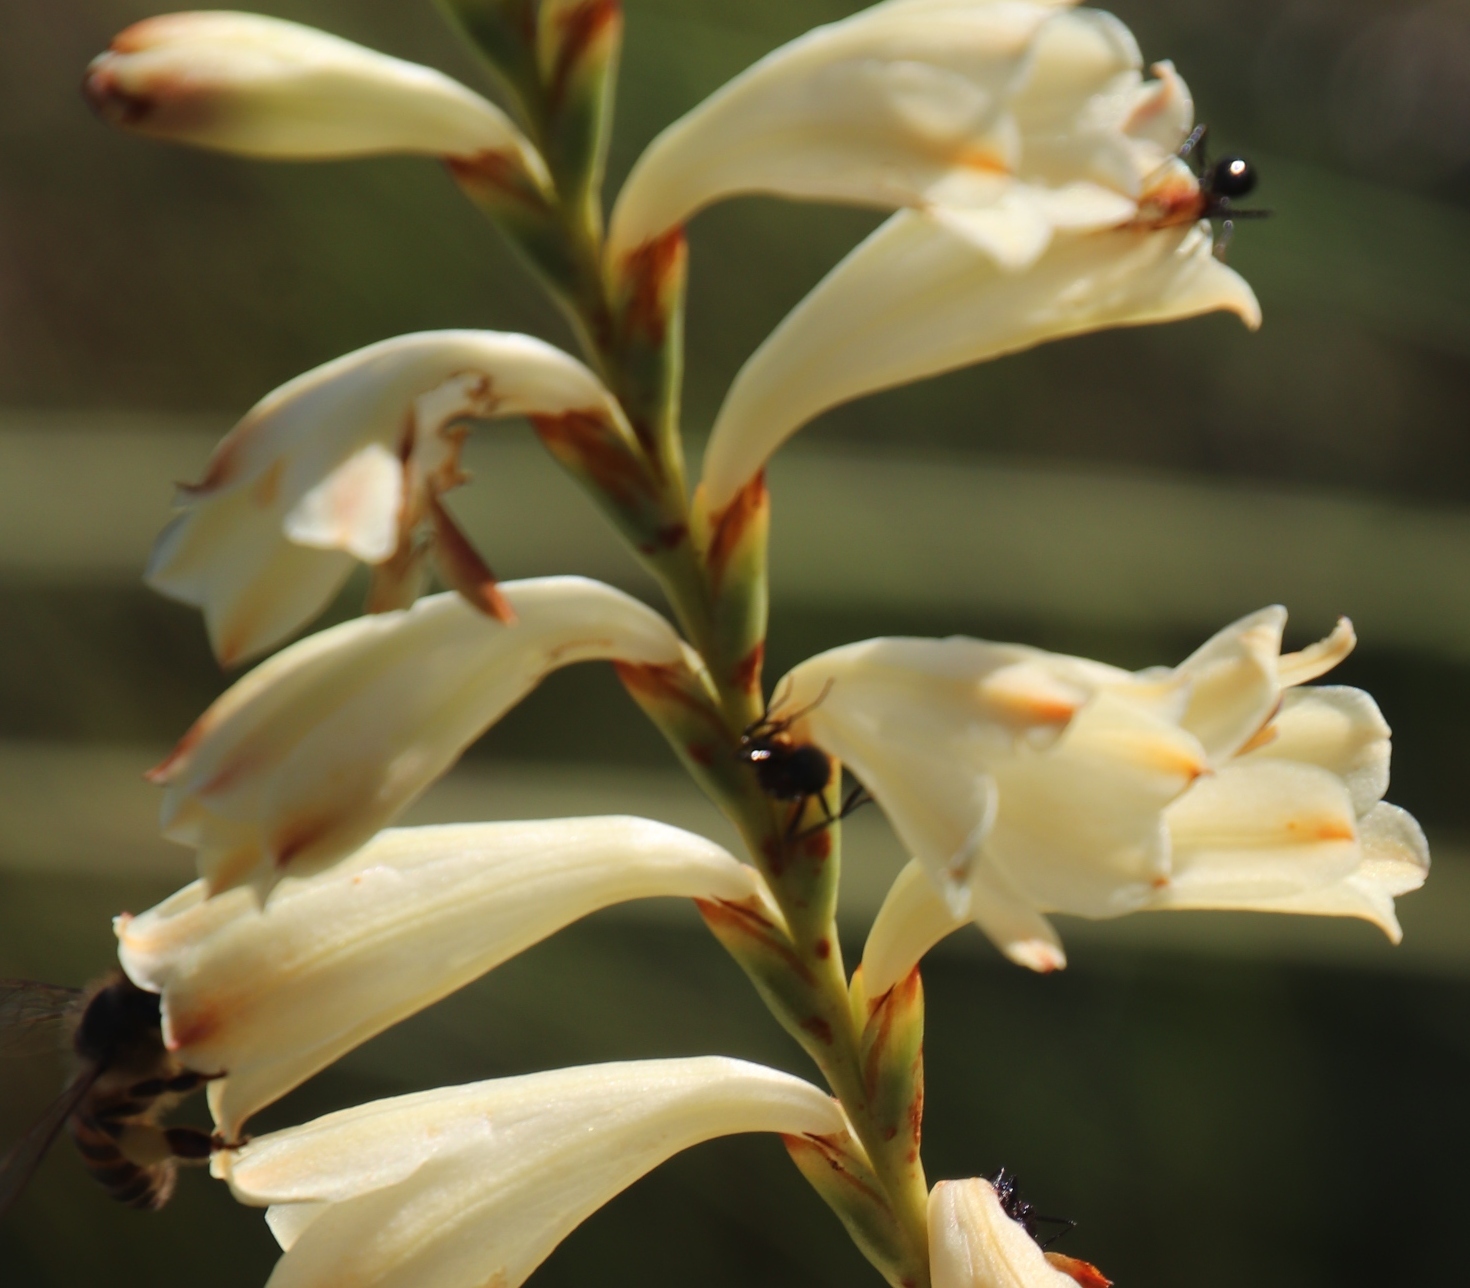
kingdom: Animalia
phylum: Arthropoda
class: Insecta
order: Hymenoptera
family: Formicidae
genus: Myrmicaria
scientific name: Myrmicaria natalensis
